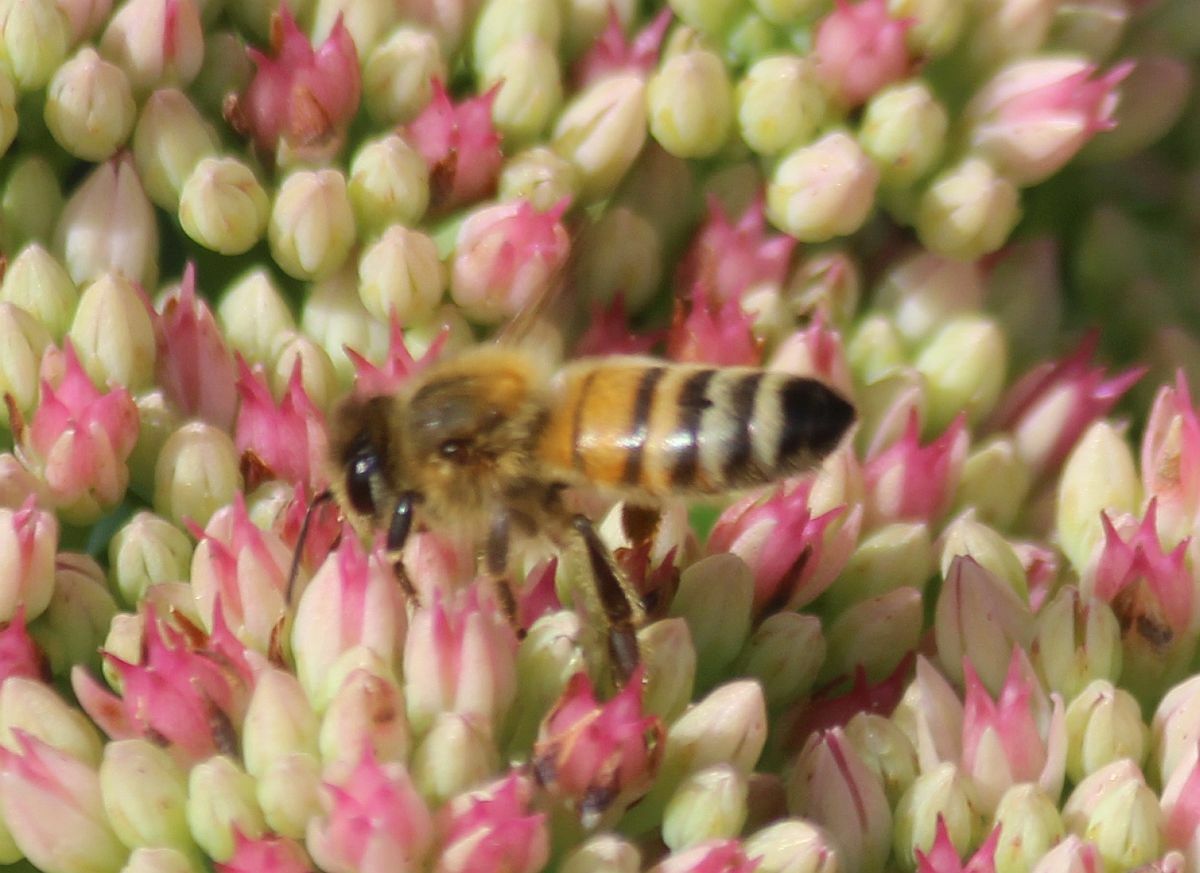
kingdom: Animalia
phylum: Arthropoda
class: Insecta
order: Hymenoptera
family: Apidae
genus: Apis
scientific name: Apis mellifera
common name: Honey bee
